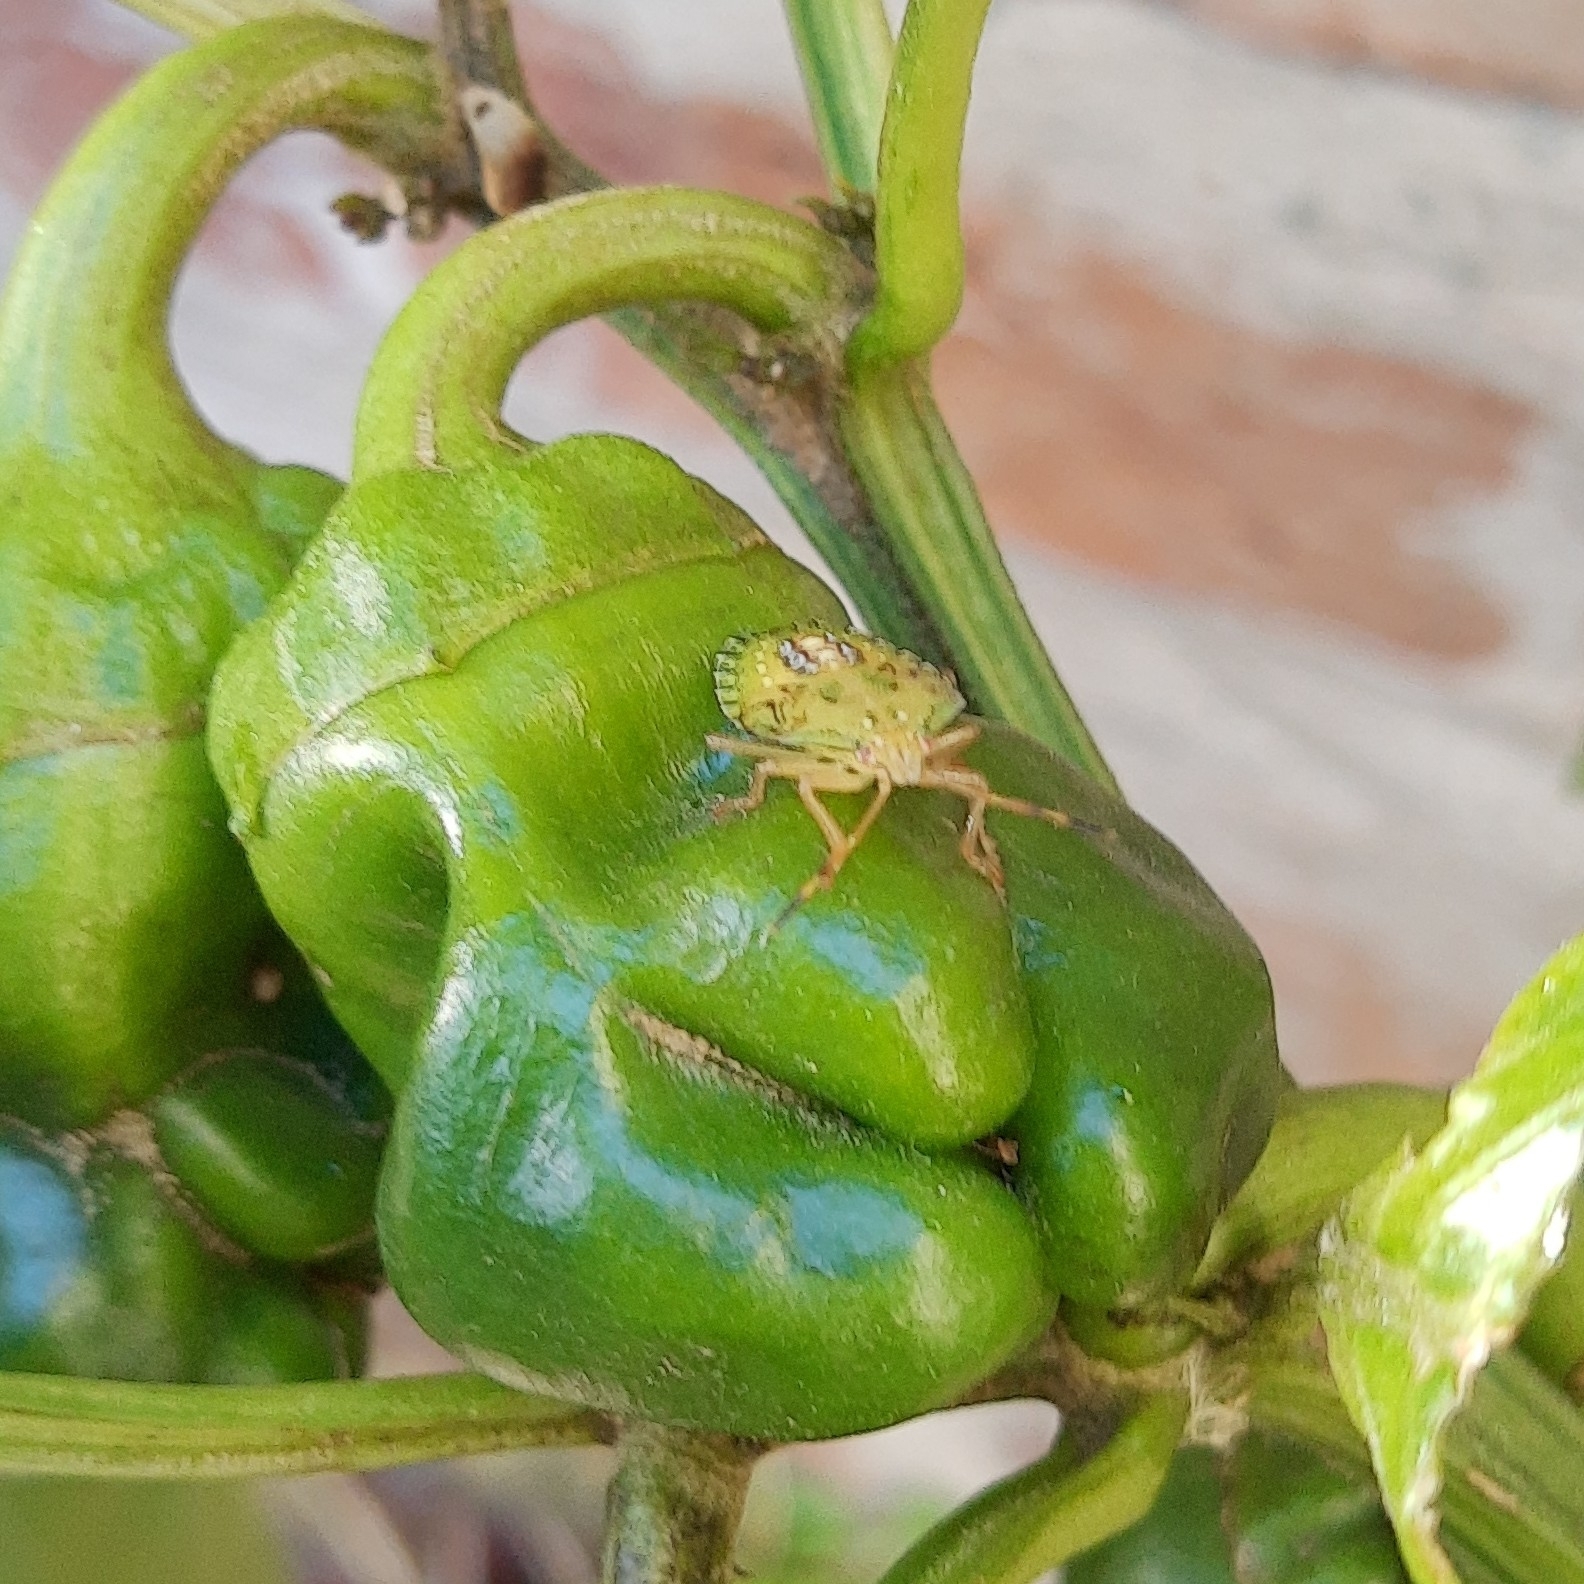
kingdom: Animalia
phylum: Arthropoda
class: Insecta
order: Hemiptera
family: Pentatomidae
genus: Edessa
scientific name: Edessa meditabunda
